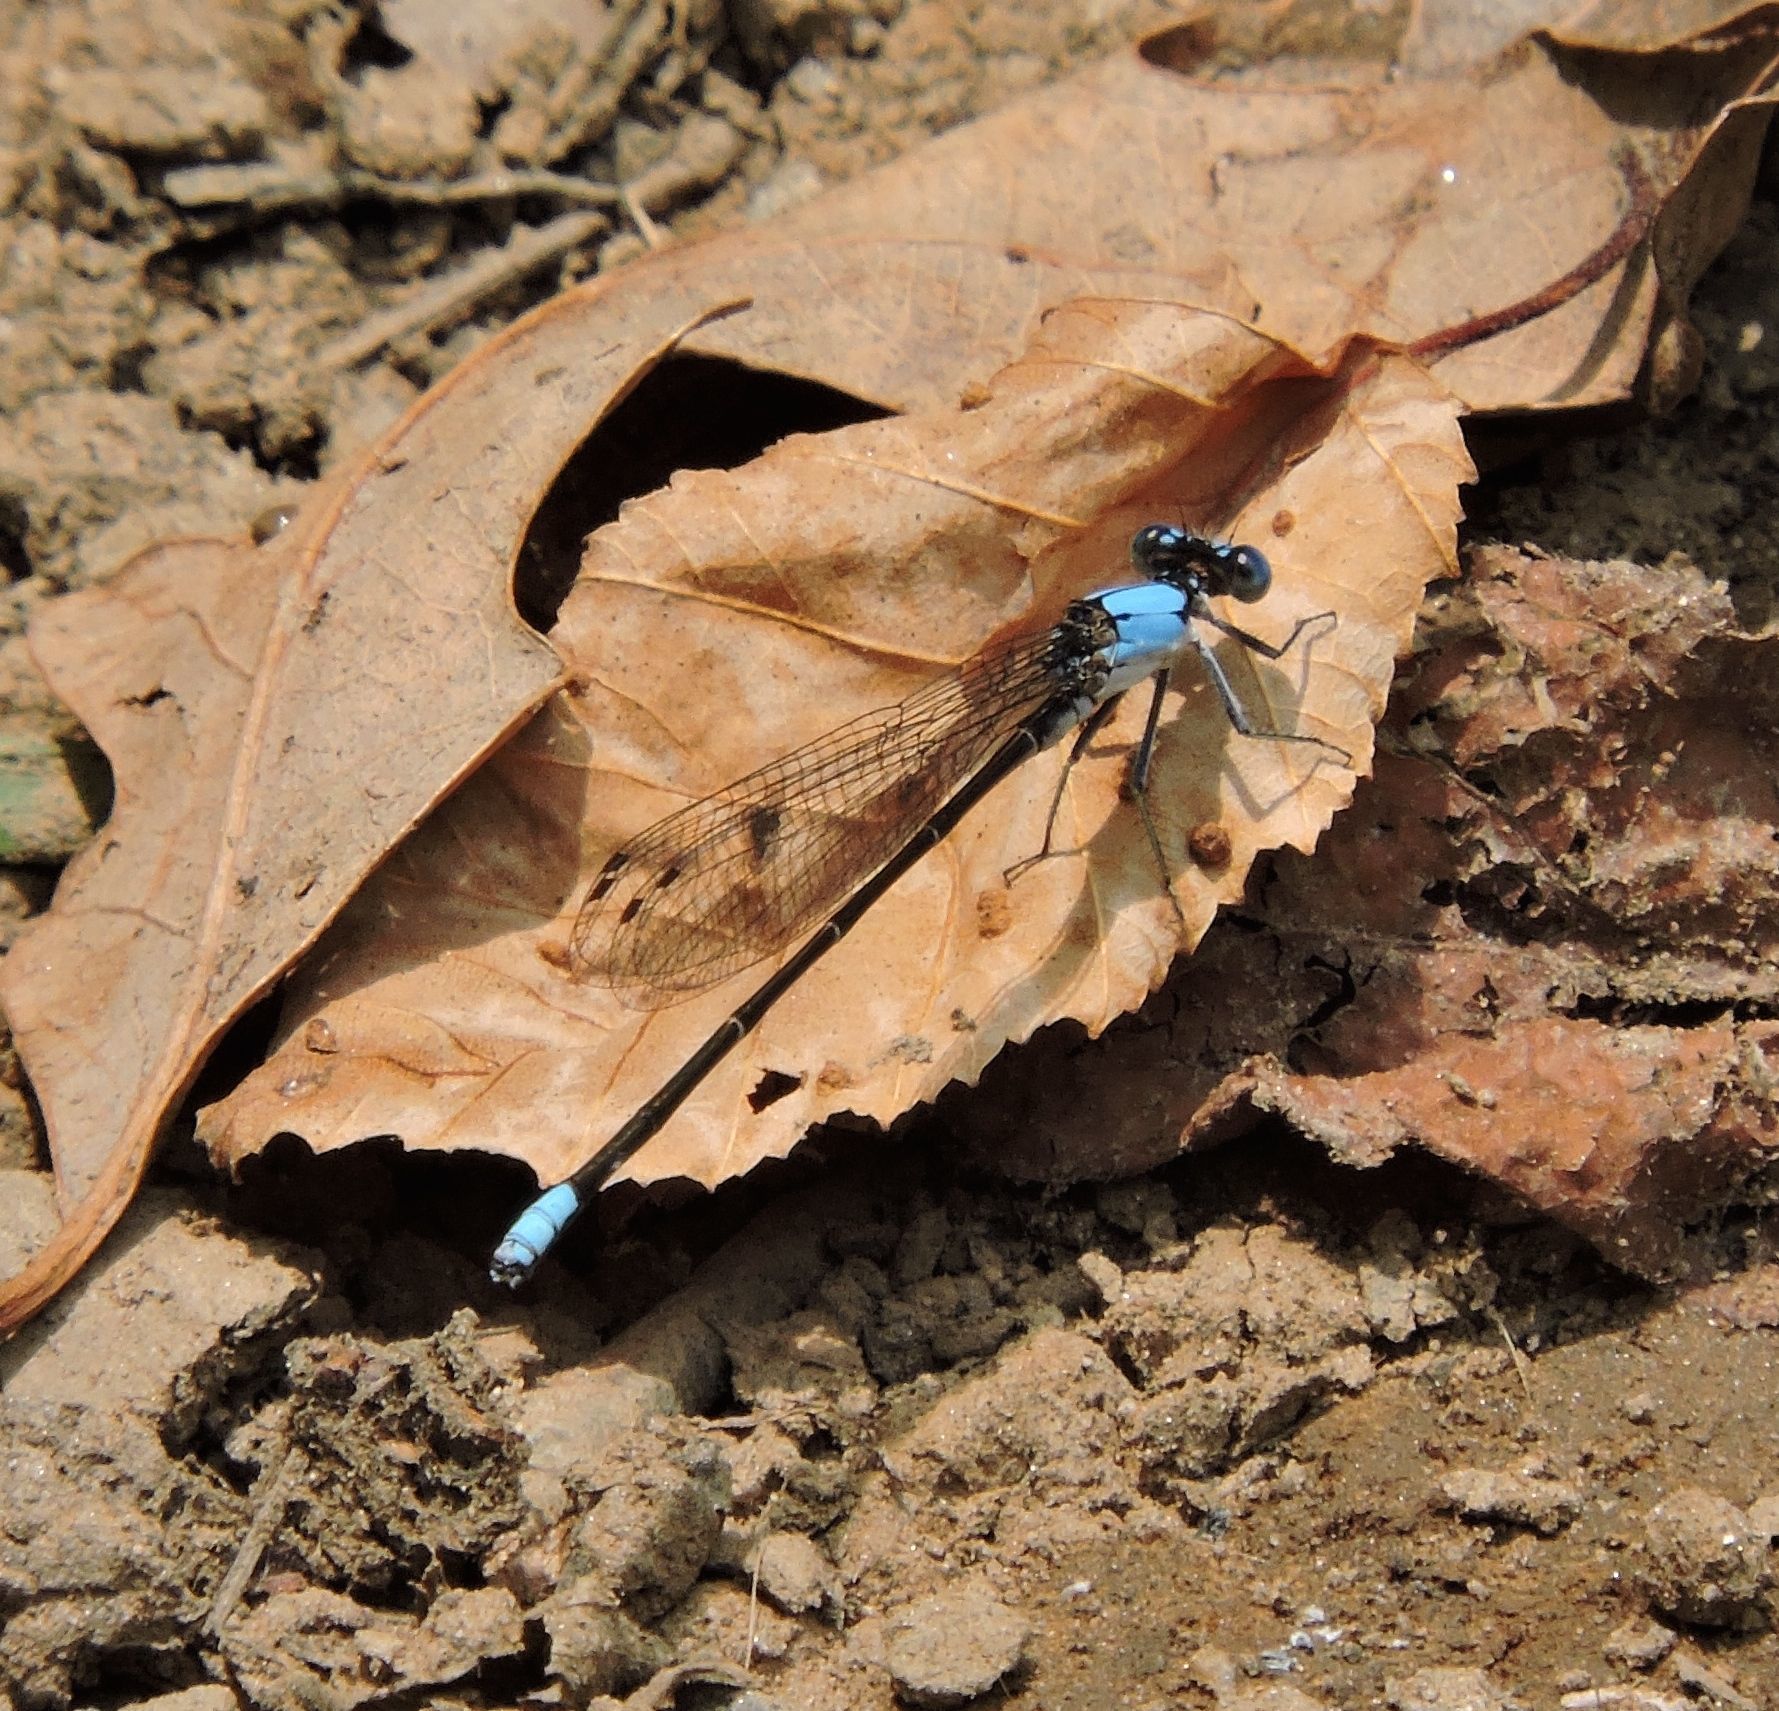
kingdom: Animalia
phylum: Arthropoda
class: Insecta
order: Odonata
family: Coenagrionidae
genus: Argia
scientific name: Argia apicalis
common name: Blue-fronted dancer
